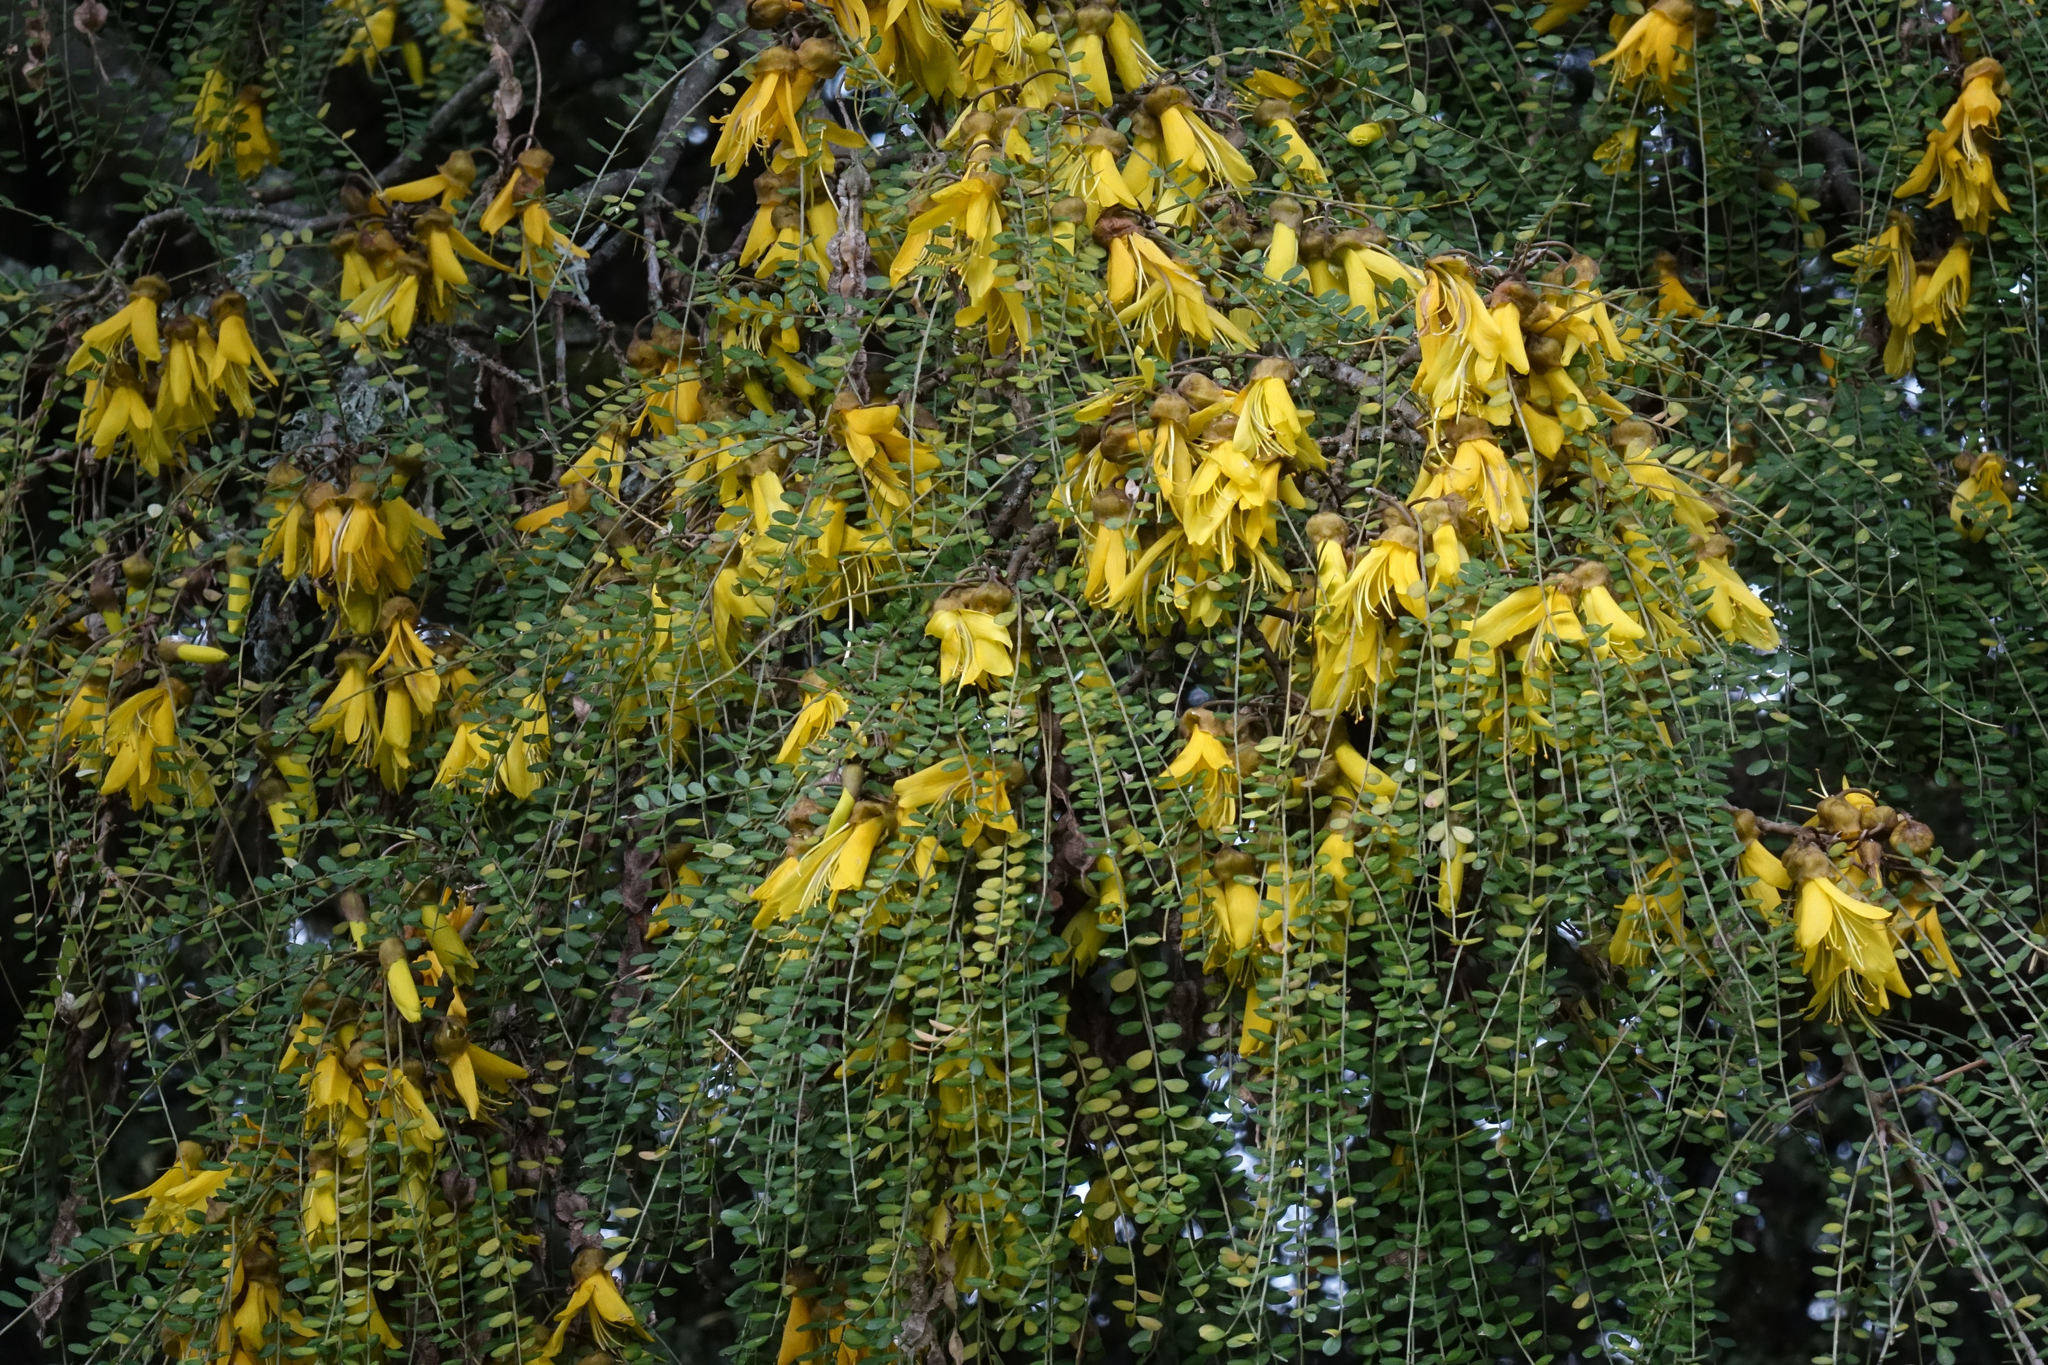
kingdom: Plantae
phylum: Tracheophyta
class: Magnoliopsida
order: Fabales
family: Fabaceae
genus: Sophora
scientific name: Sophora microphylla
